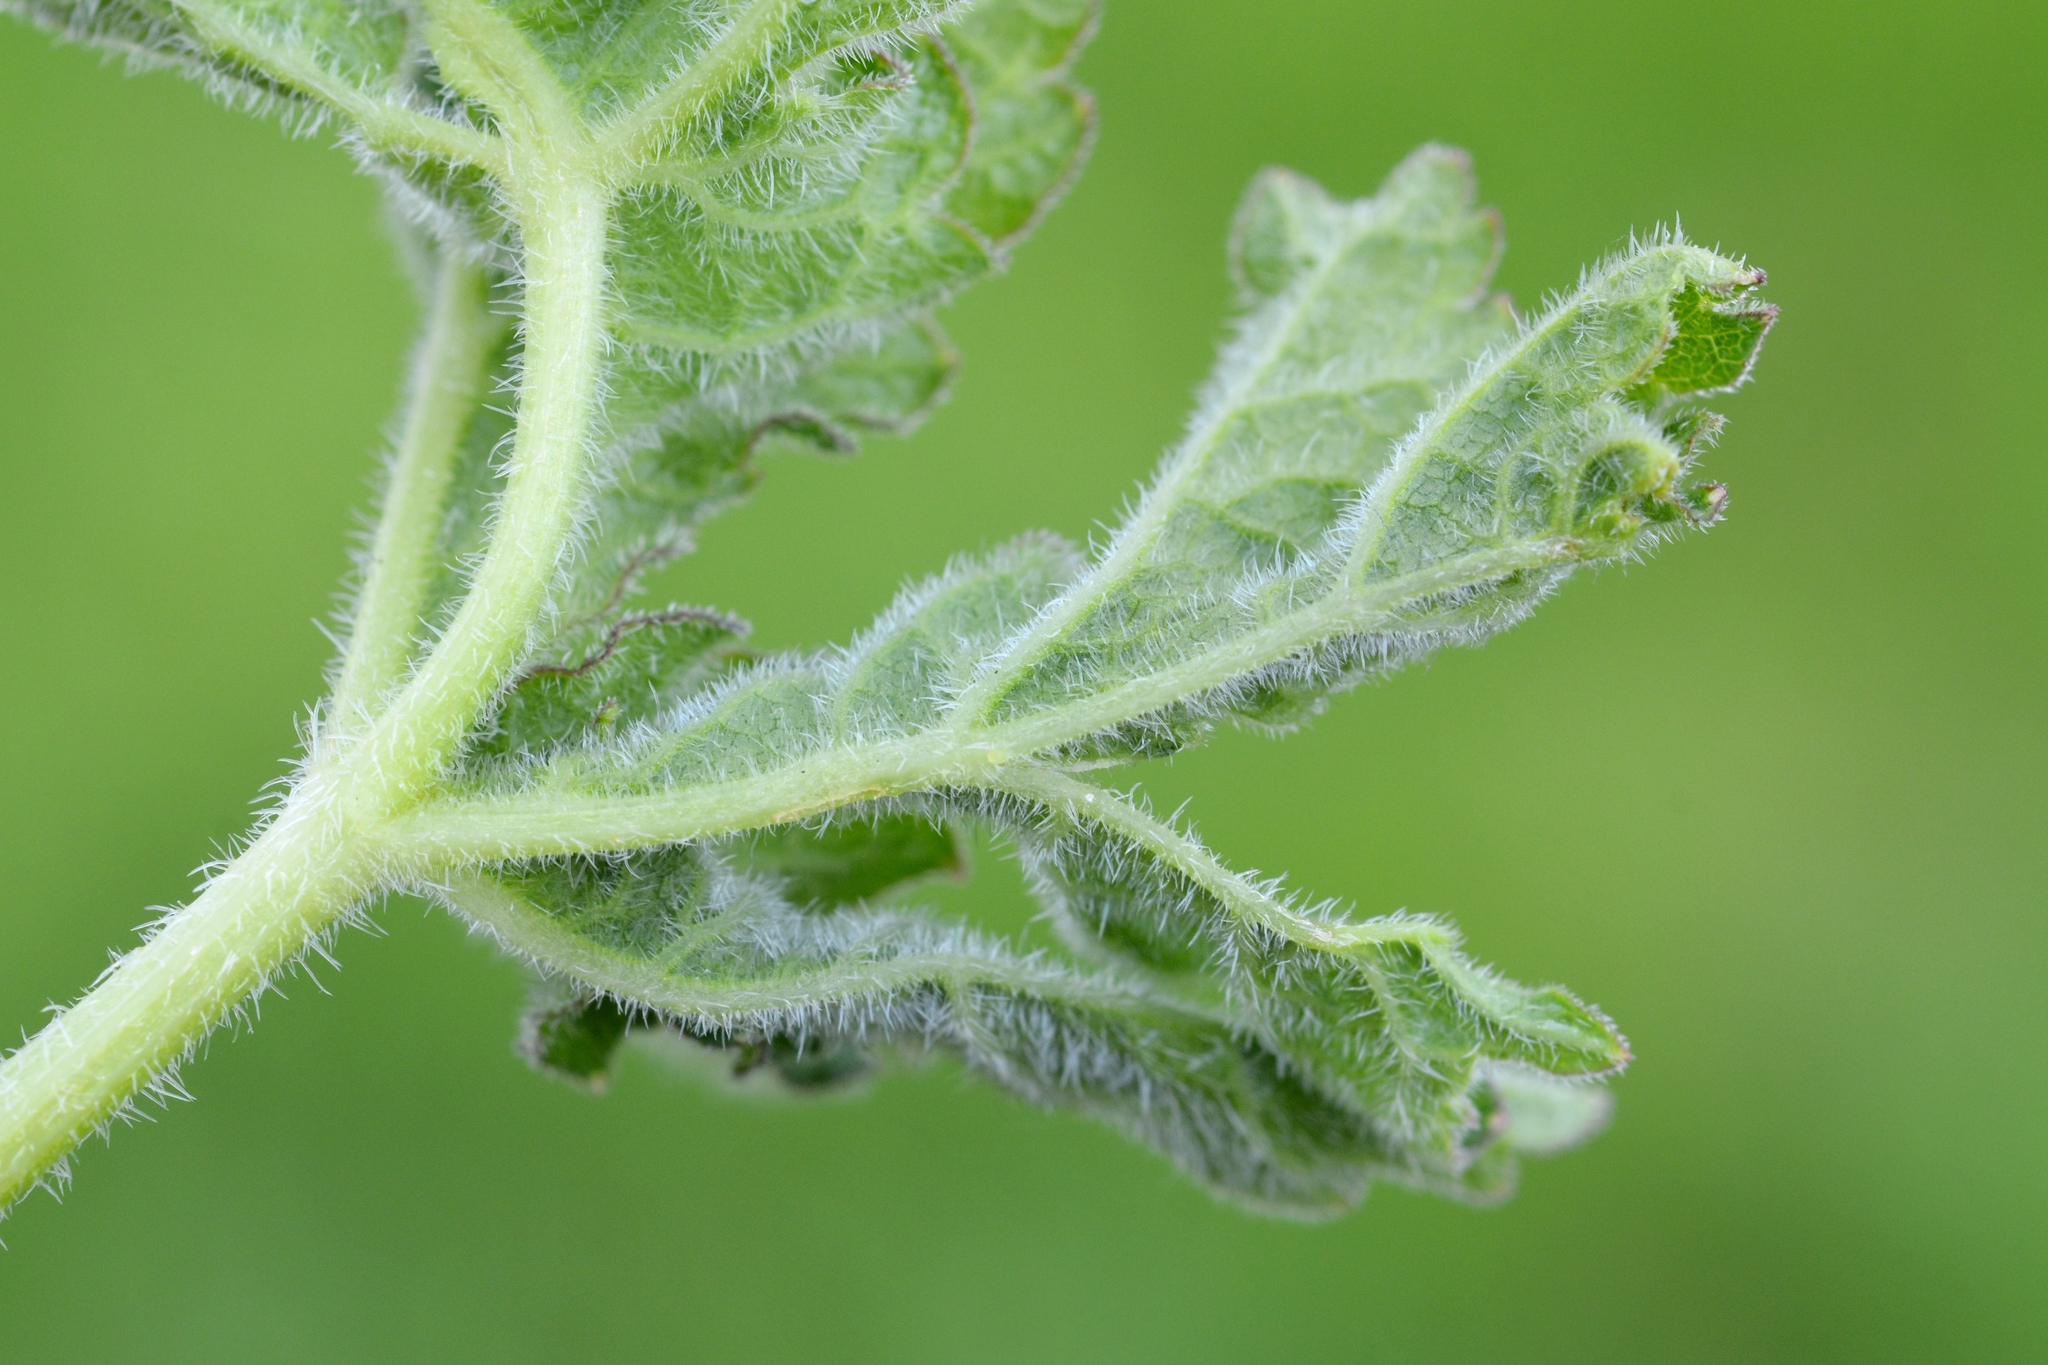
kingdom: Animalia
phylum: Arthropoda
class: Insecta
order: Diptera
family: Cecidomyiidae
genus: Macrolabis
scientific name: Macrolabis heraclei
